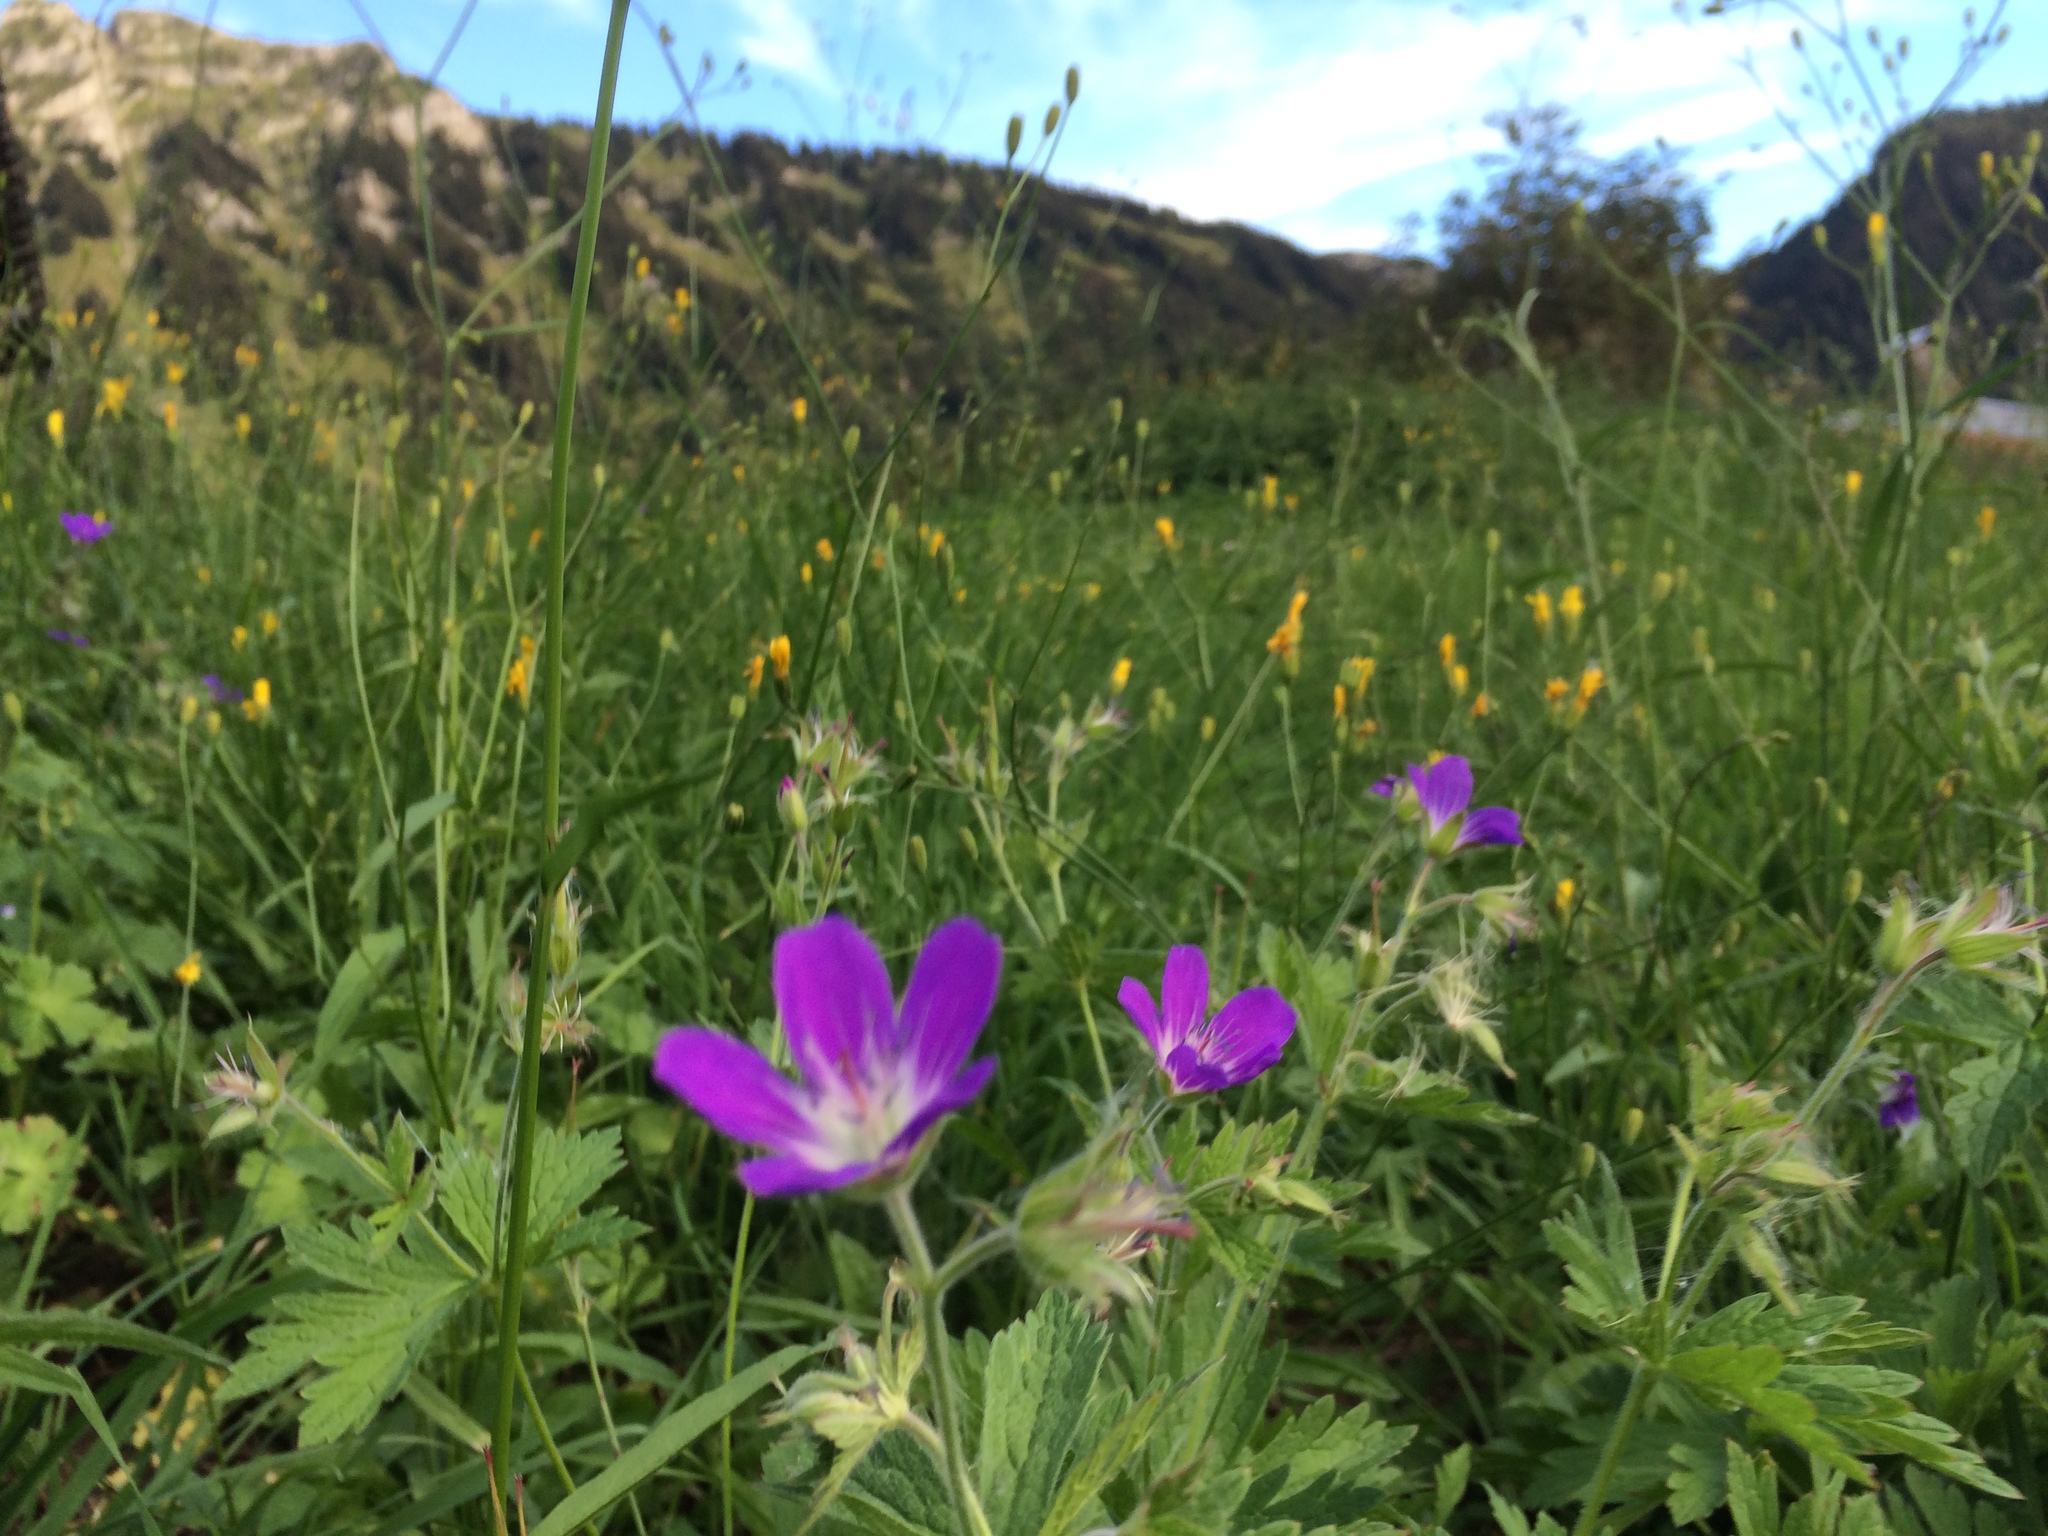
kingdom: Plantae
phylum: Tracheophyta
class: Magnoliopsida
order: Geraniales
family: Geraniaceae
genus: Geranium
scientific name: Geranium sylvaticum
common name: Wood crane's-bill
